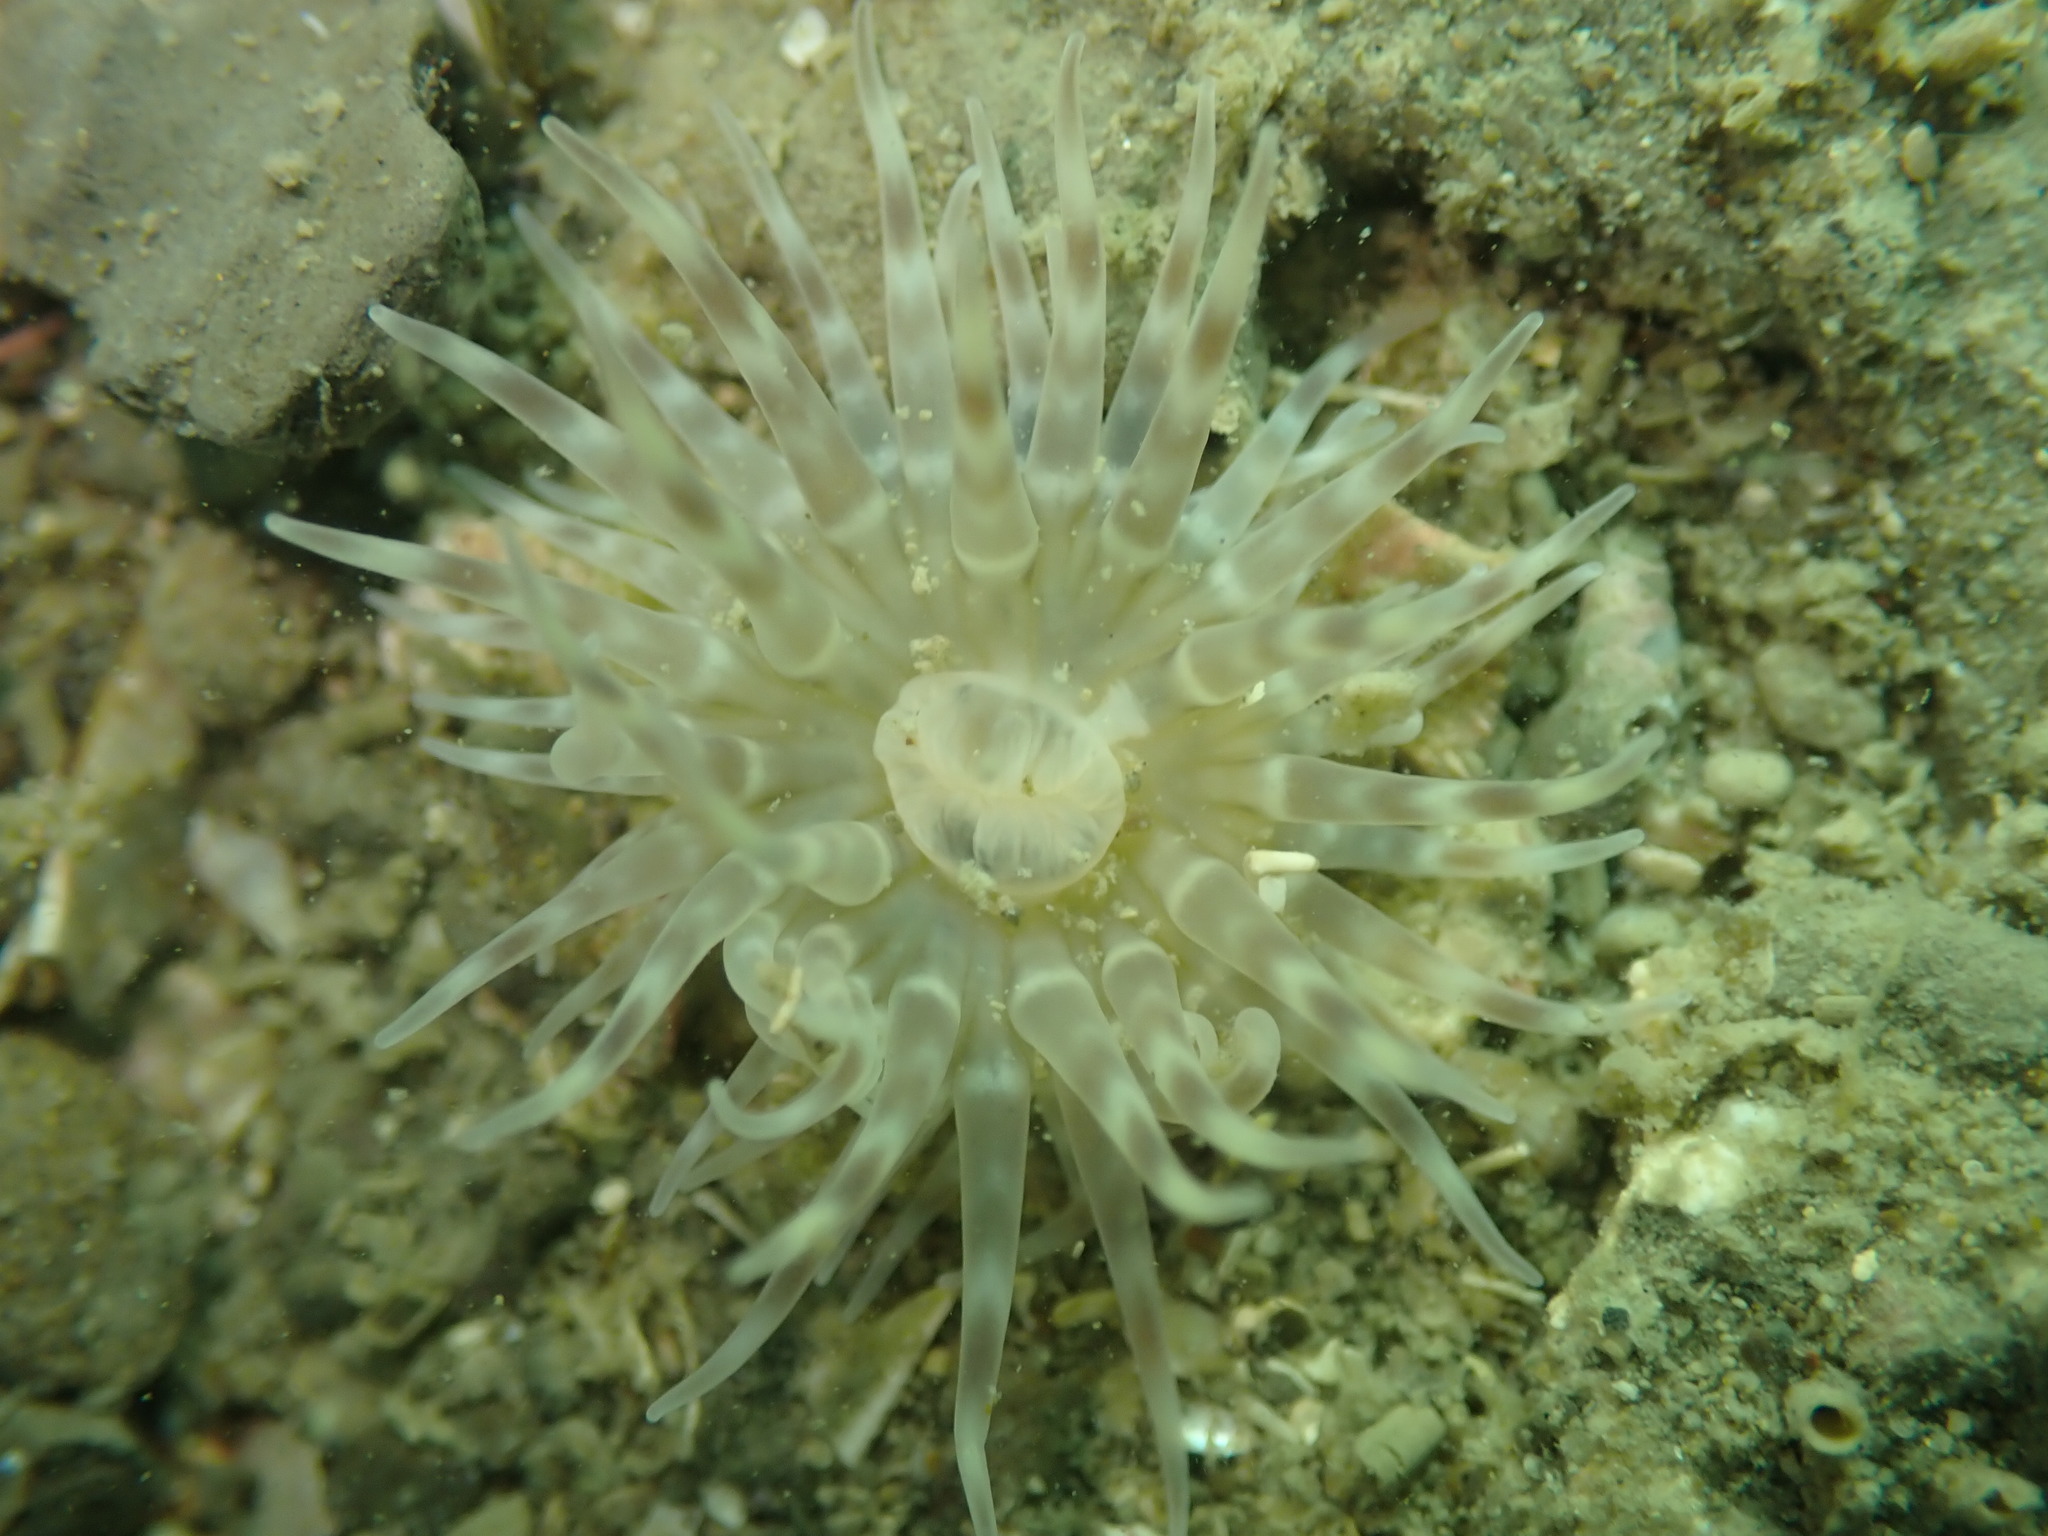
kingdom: Animalia
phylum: Cnidaria
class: Anthozoa
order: Actiniaria
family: Isanthidae
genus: Isoparactis
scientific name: Isoparactis ferax
